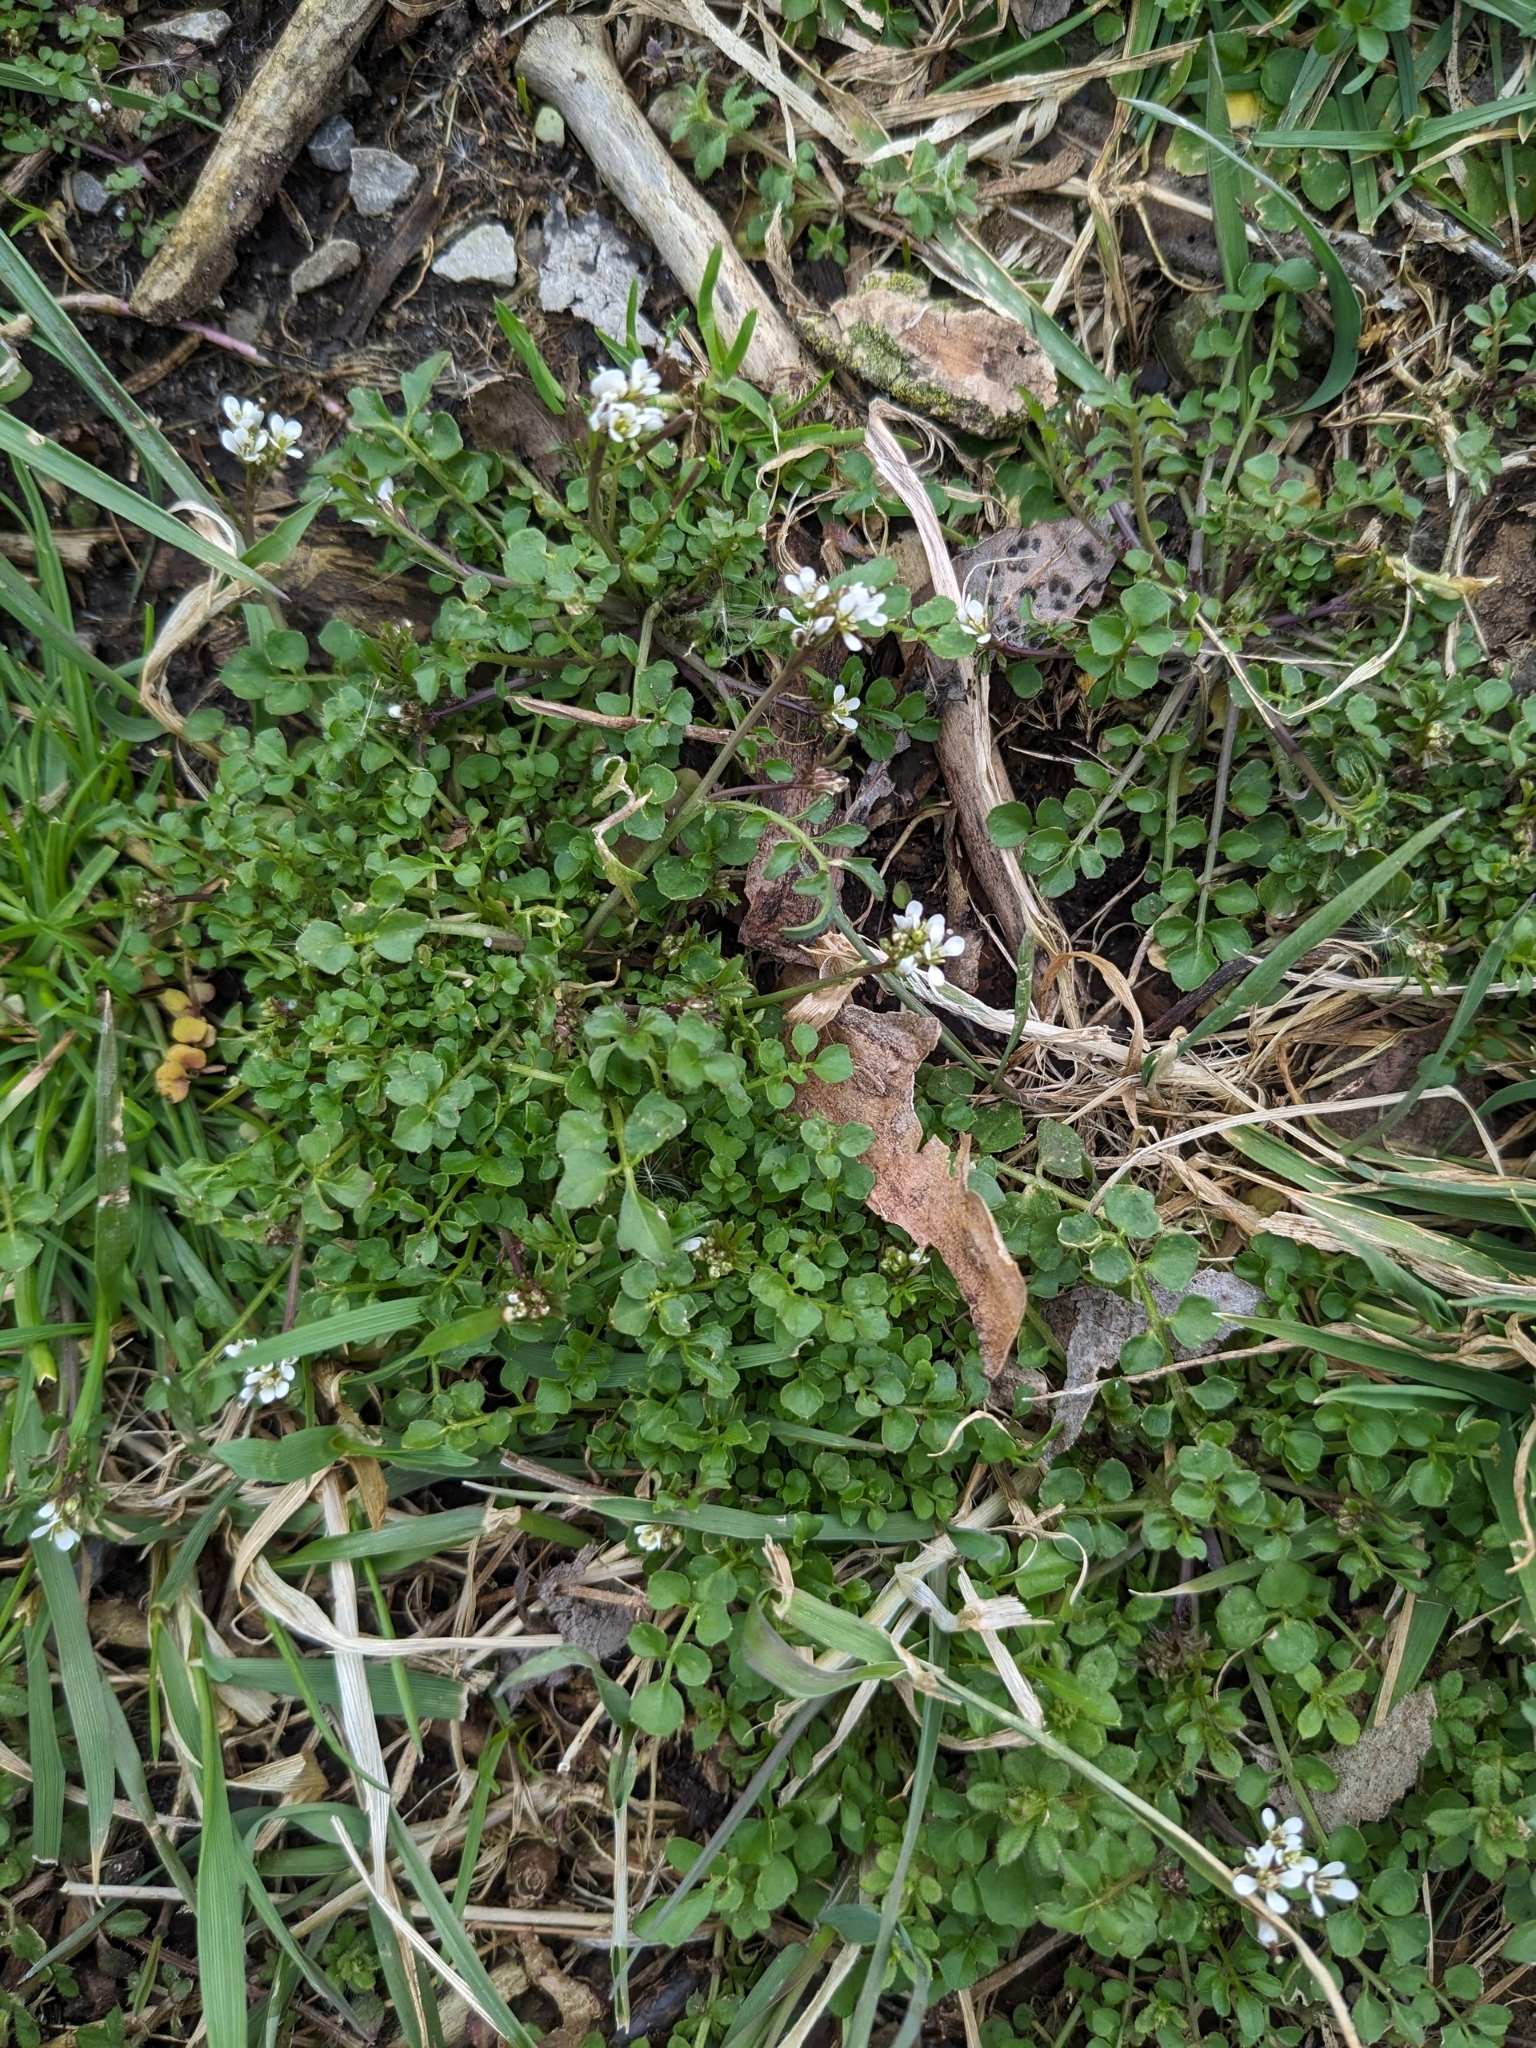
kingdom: Plantae
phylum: Tracheophyta
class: Magnoliopsida
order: Brassicales
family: Brassicaceae
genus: Cardamine
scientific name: Cardamine hirsuta
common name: Hairy bittercress
